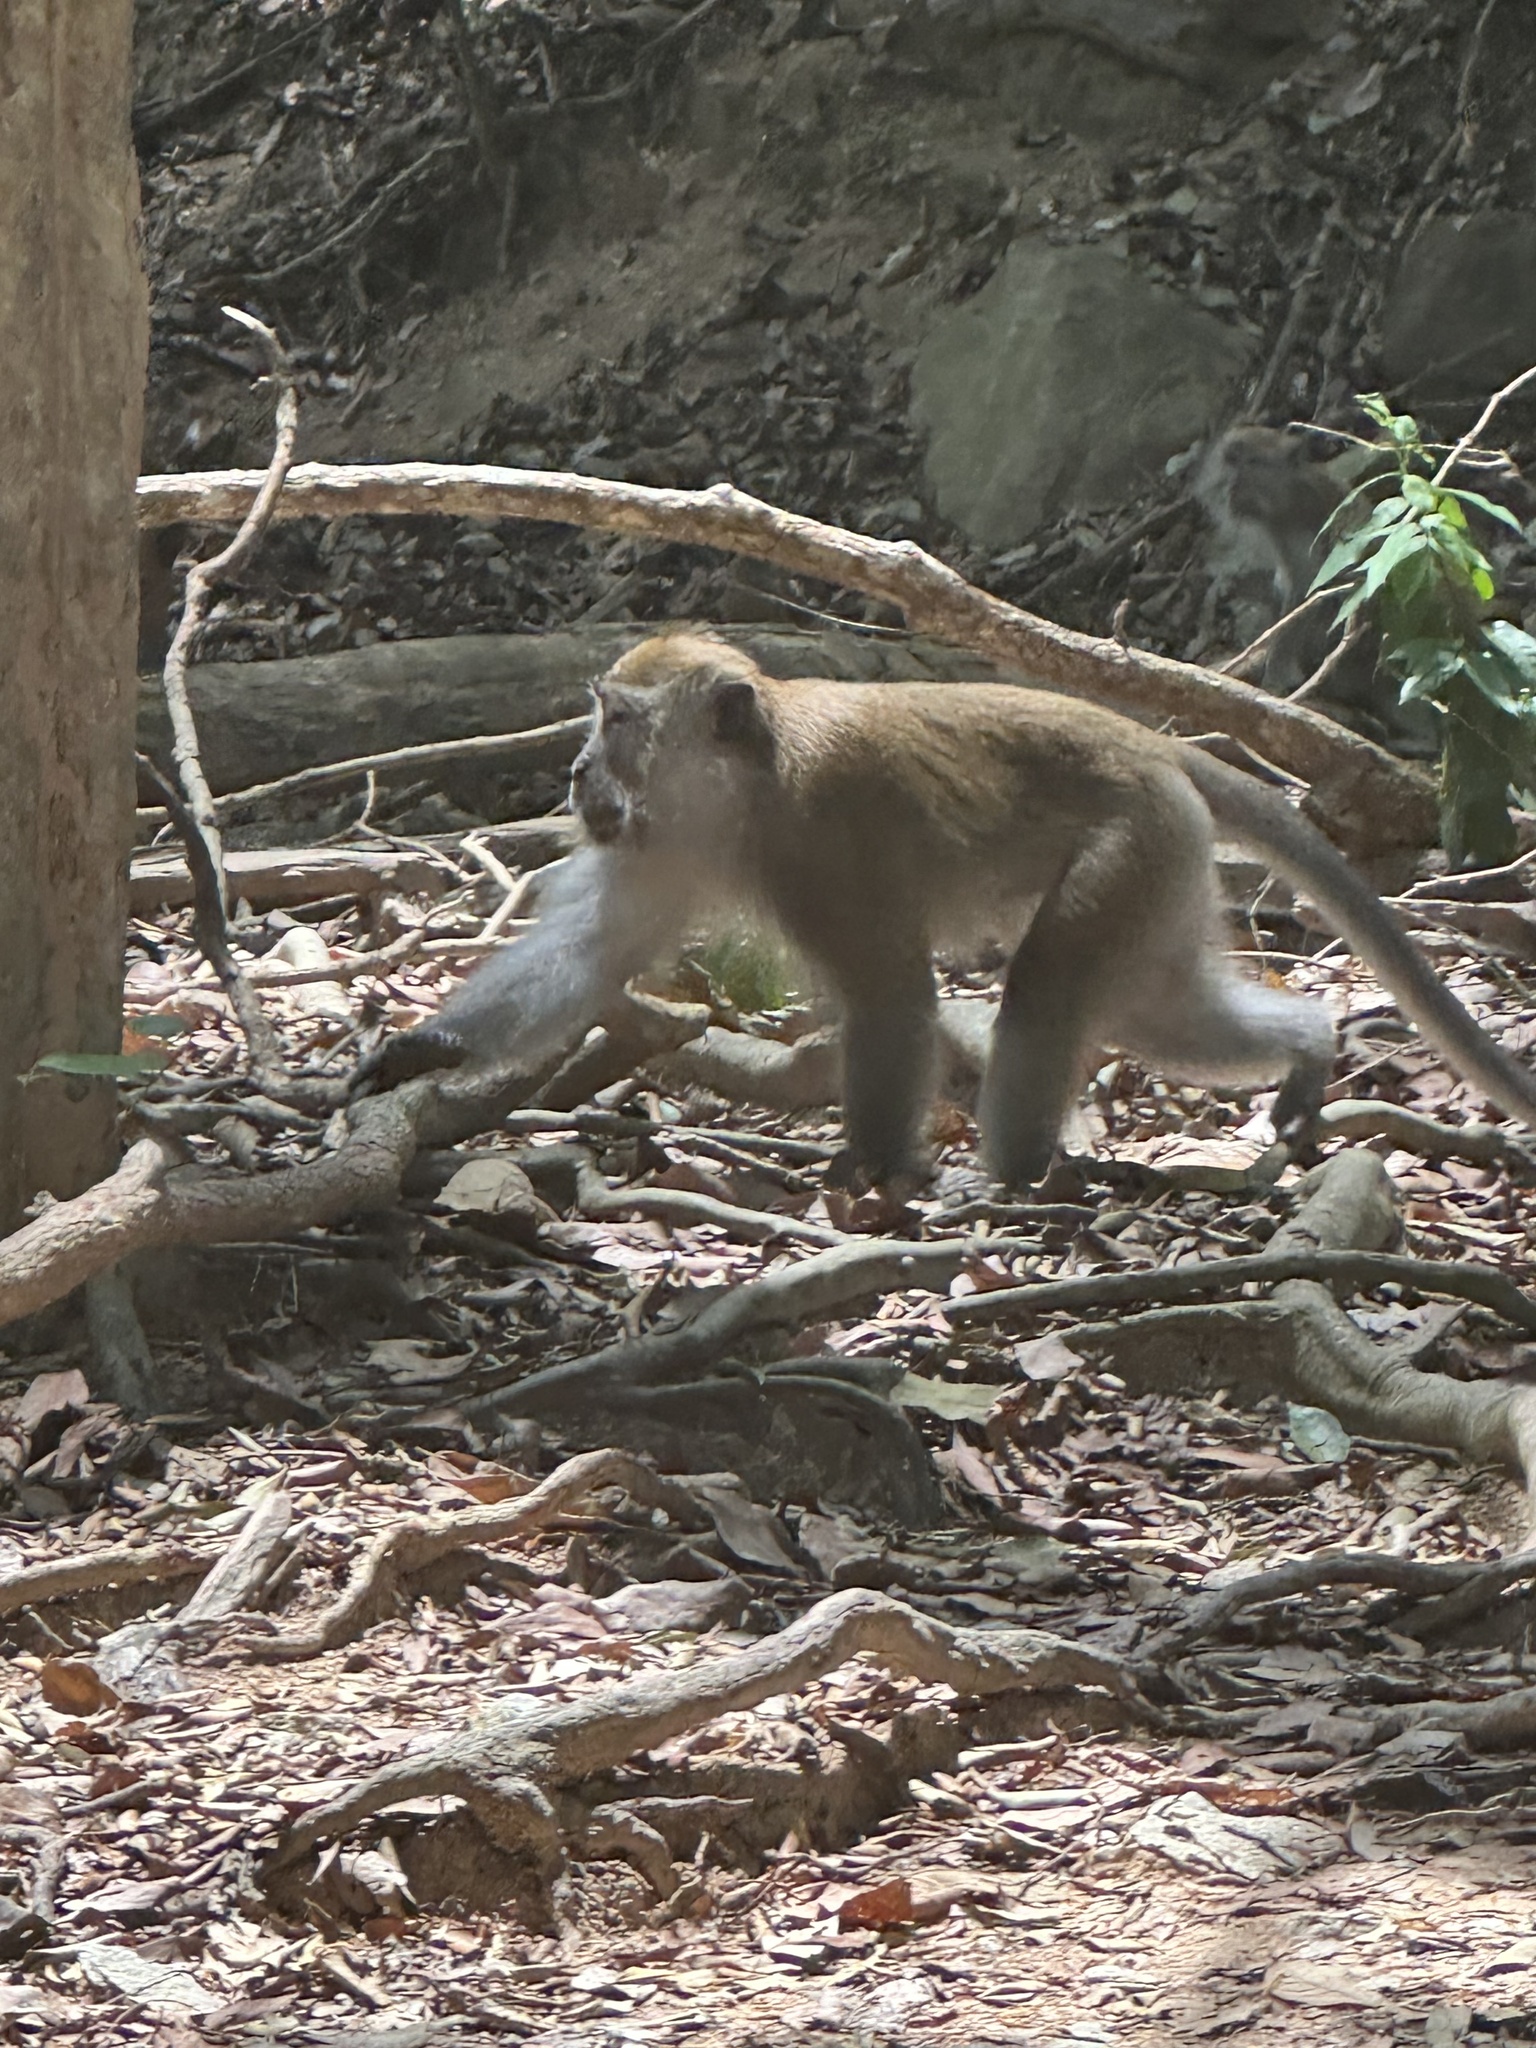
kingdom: Animalia
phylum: Chordata
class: Mammalia
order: Primates
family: Cercopithecidae
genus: Macaca
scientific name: Macaca fascicularis
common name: Crab-eating macaque
